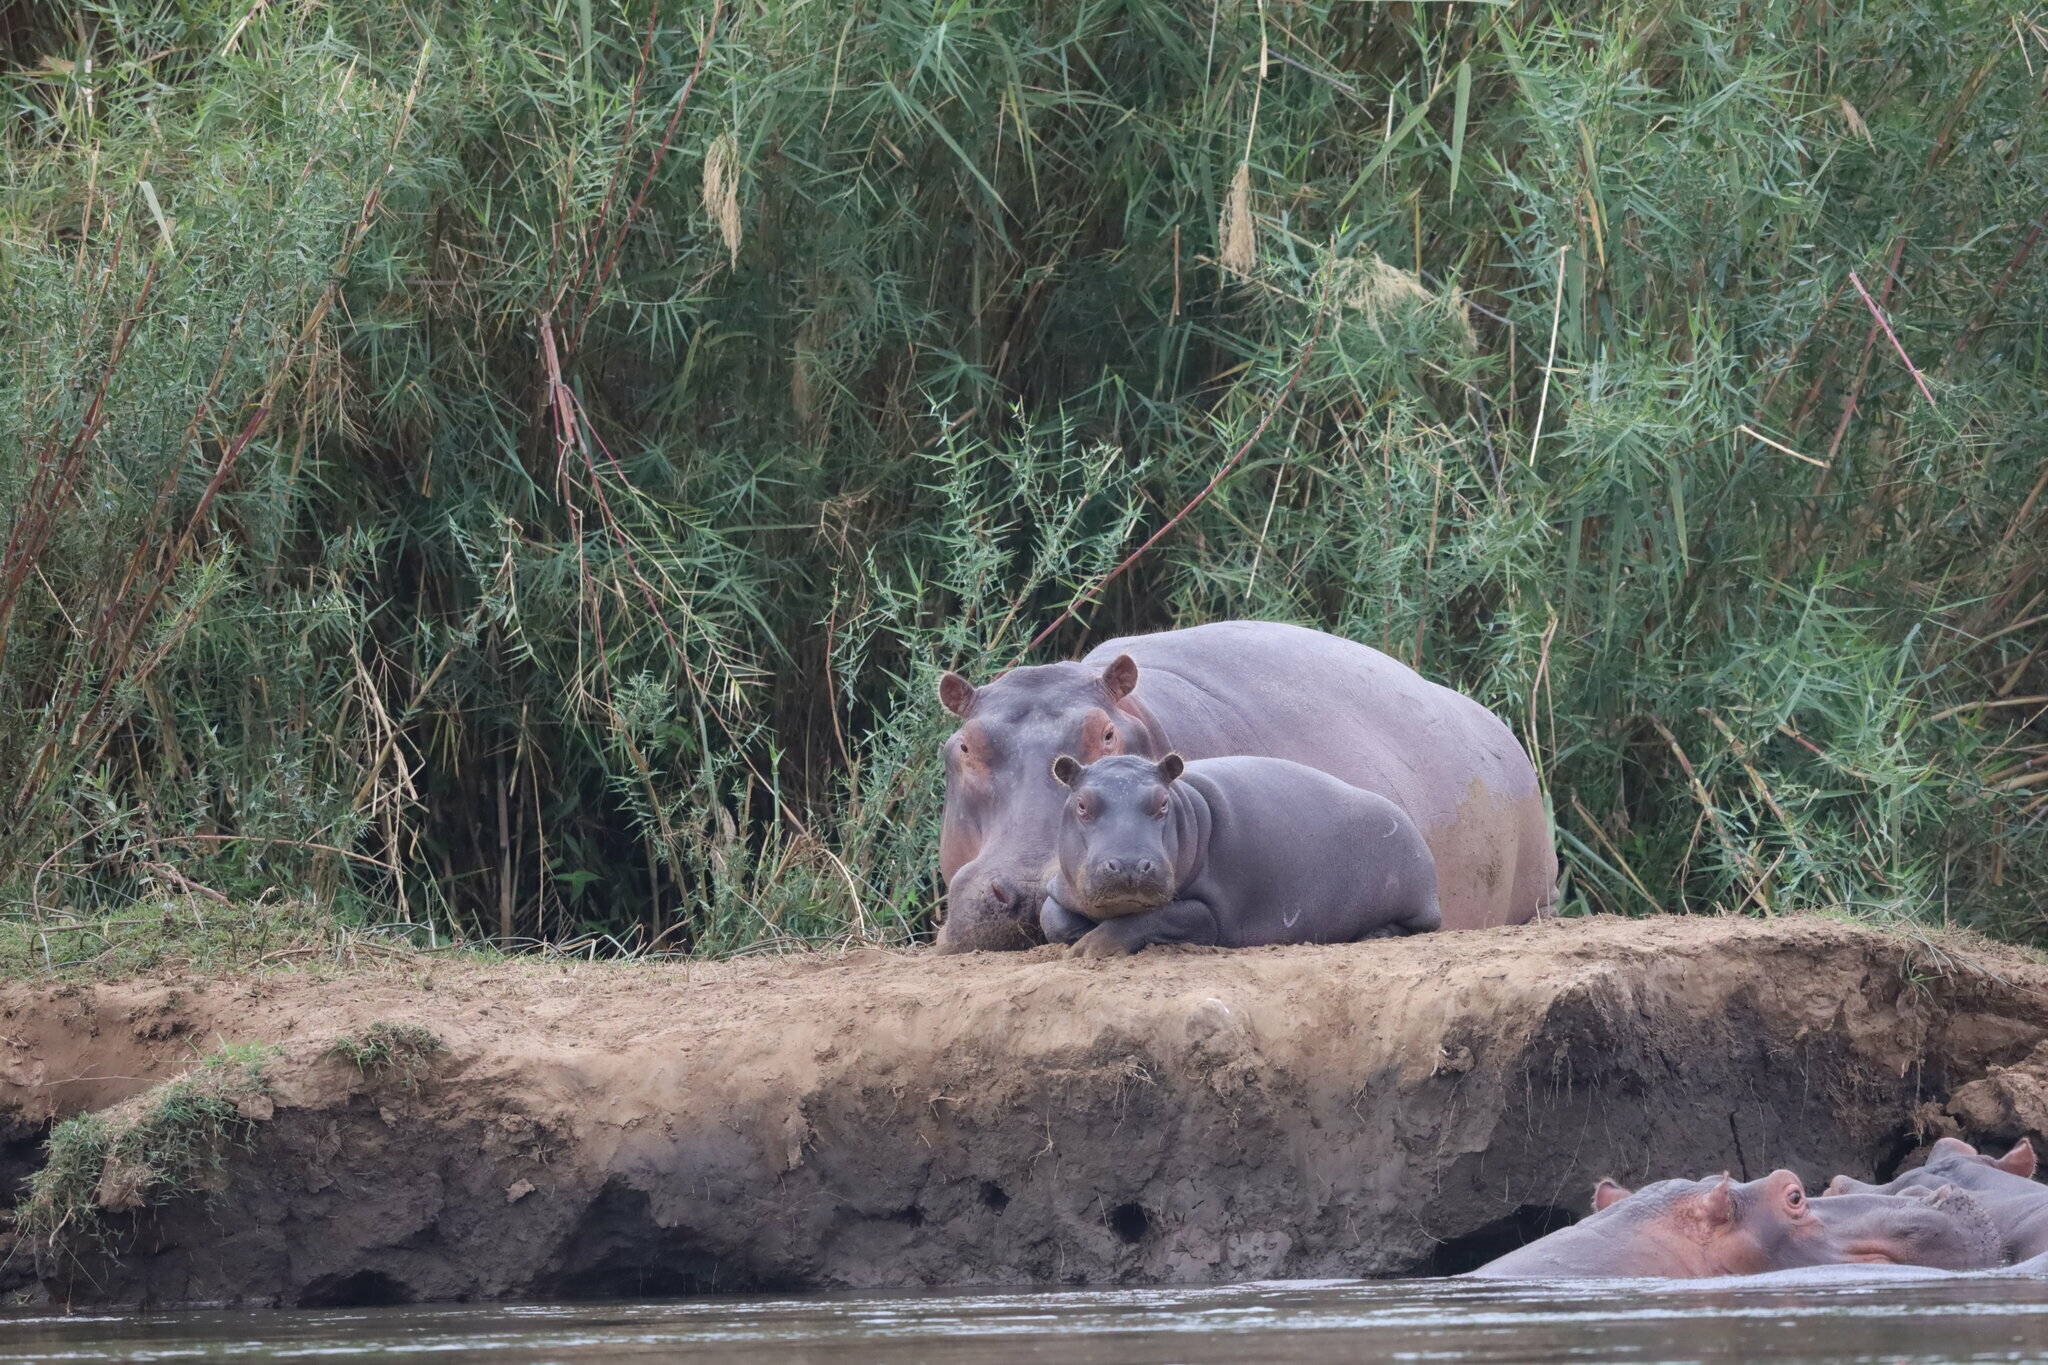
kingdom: Animalia
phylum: Chordata
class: Mammalia
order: Artiodactyla
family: Hippopotamidae
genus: Hippopotamus
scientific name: Hippopotamus amphibius
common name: Common hippopotamus
